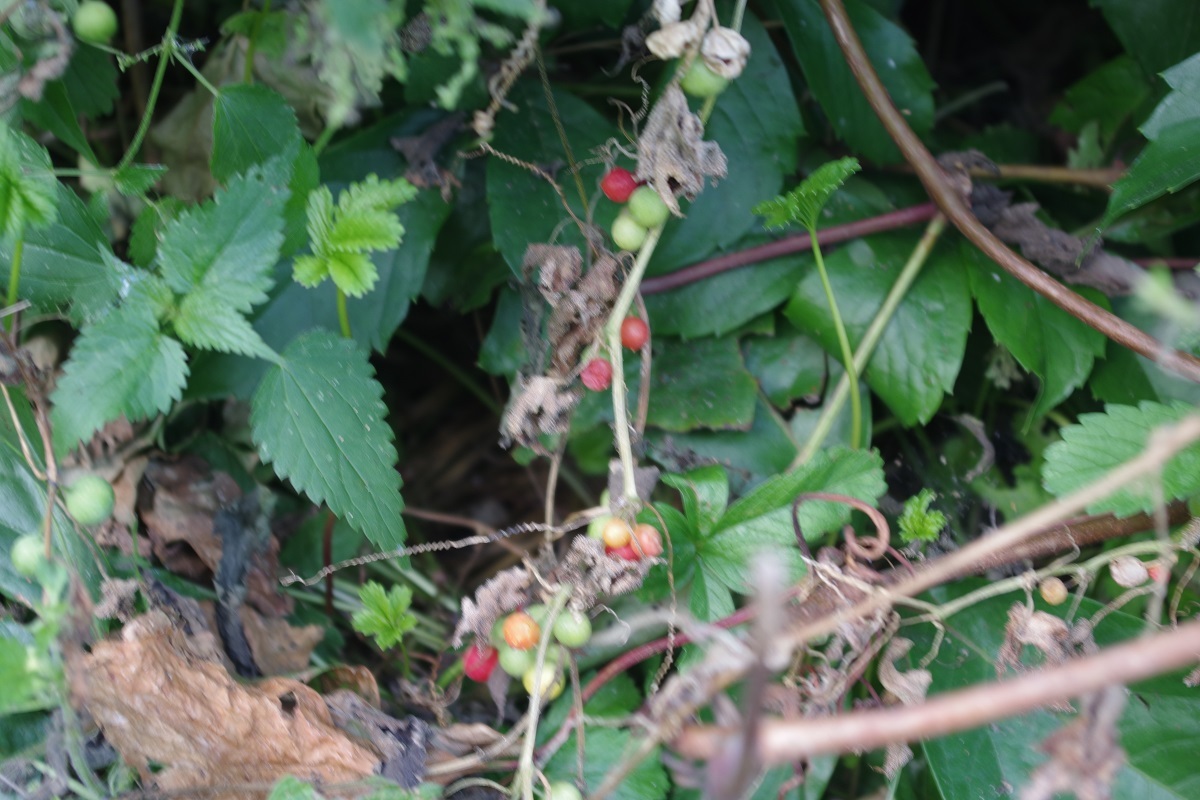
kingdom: Plantae
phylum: Tracheophyta
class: Magnoliopsida
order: Cucurbitales
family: Cucurbitaceae
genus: Bryonia
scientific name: Bryonia cretica
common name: Cretan bryony
